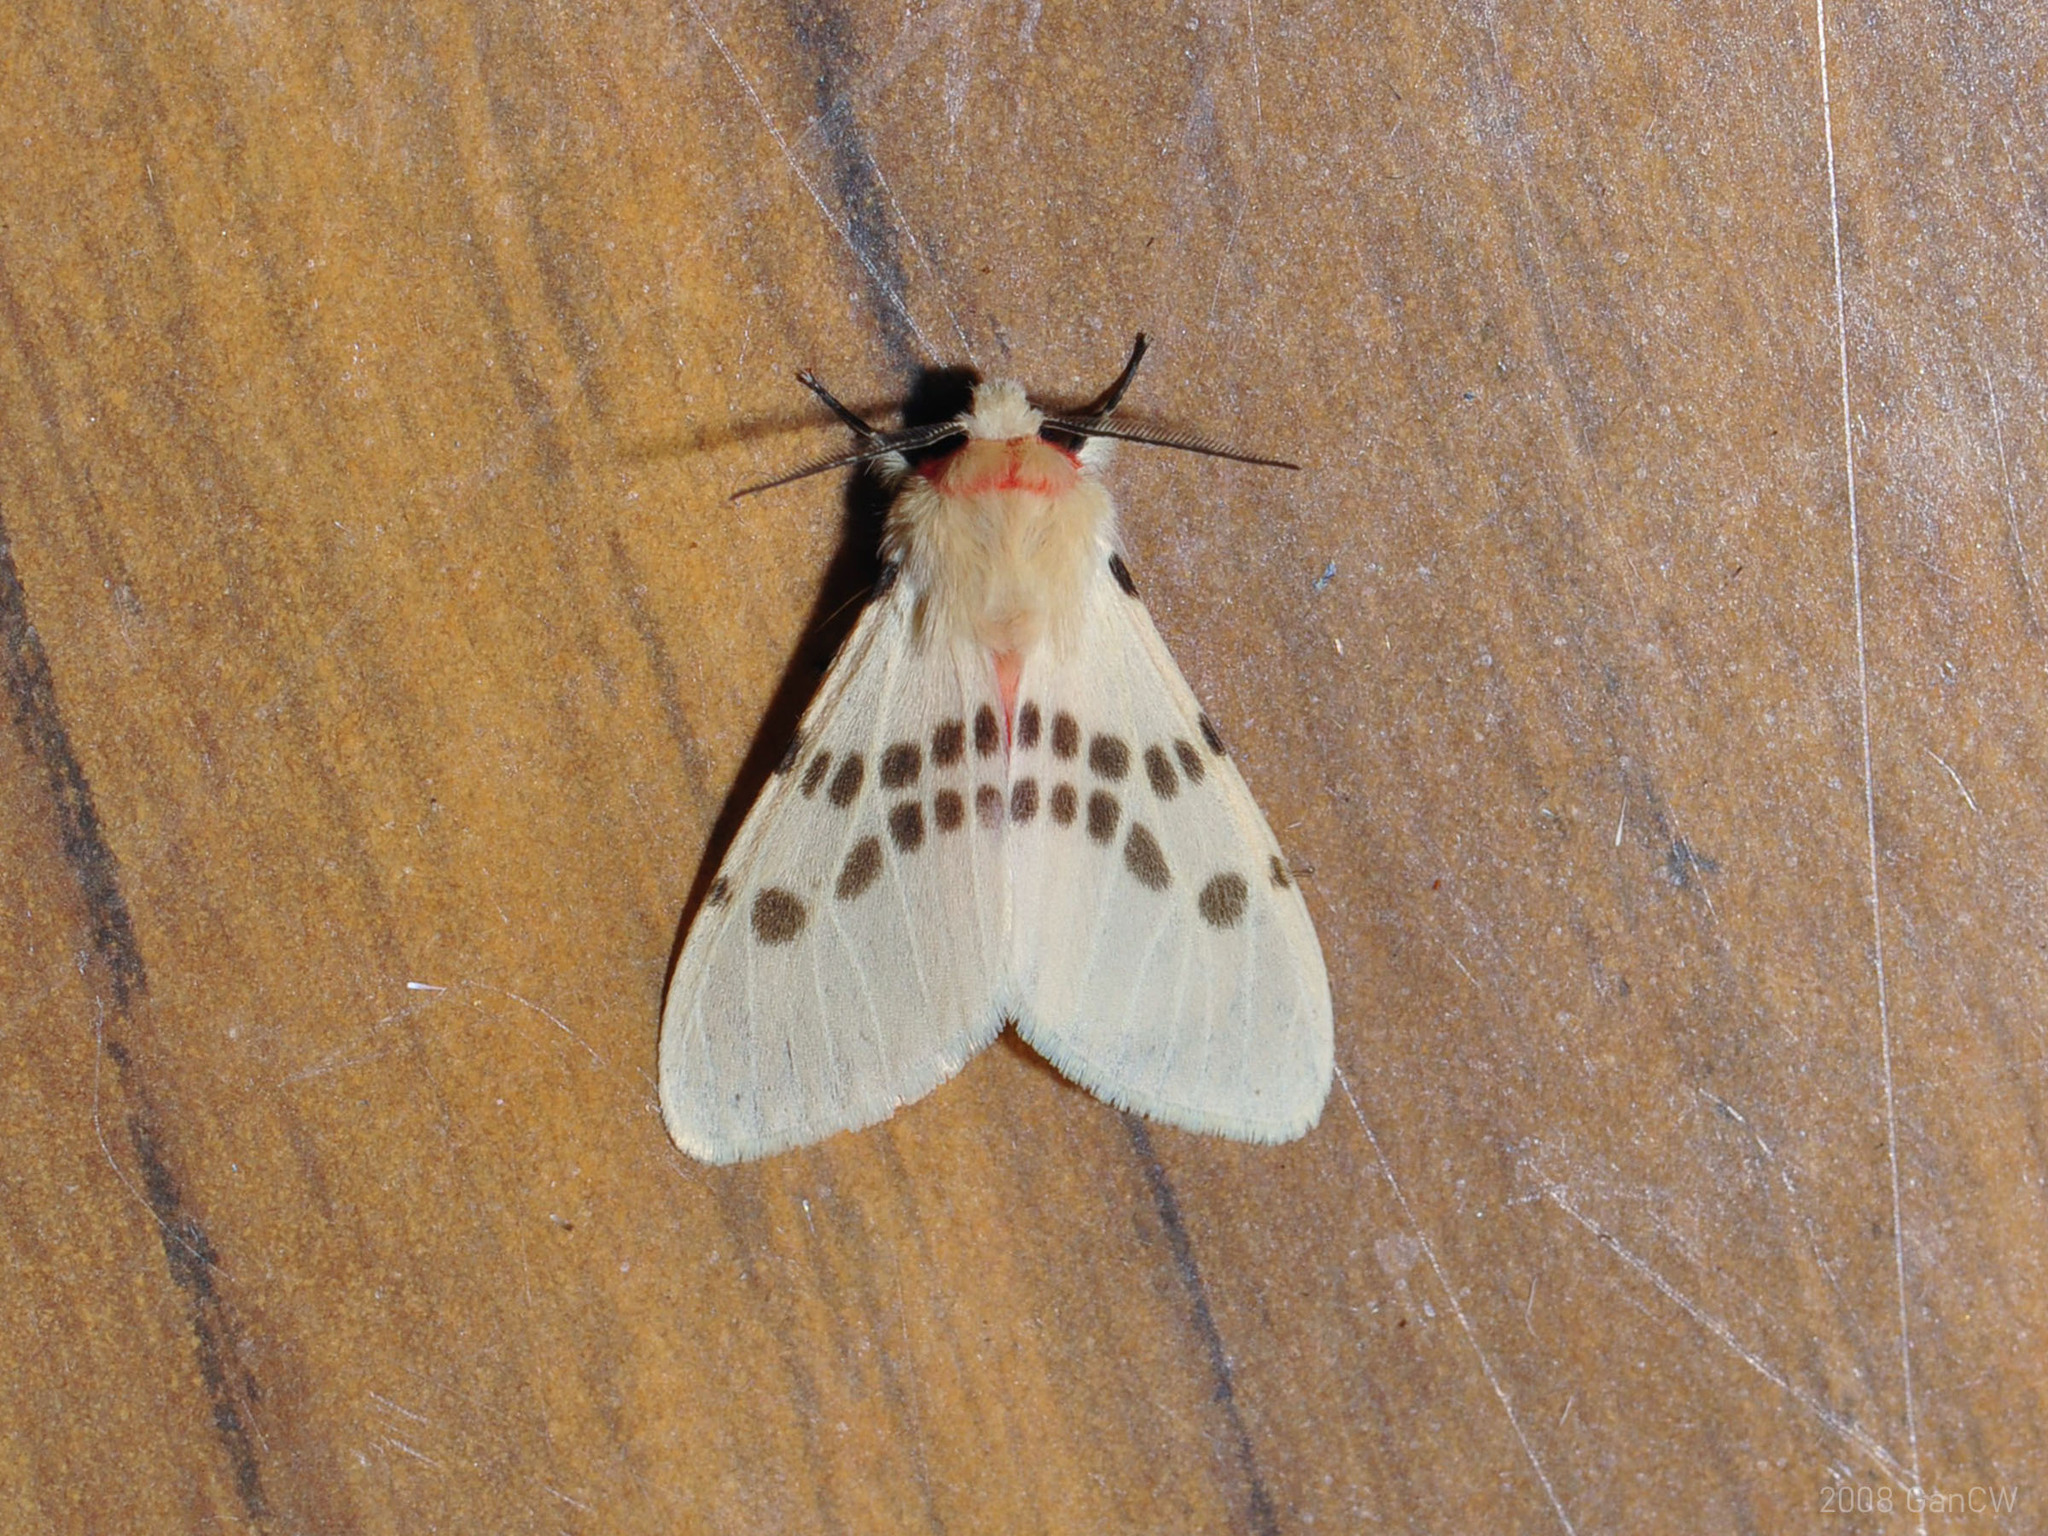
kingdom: Animalia
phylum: Arthropoda
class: Insecta
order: Lepidoptera
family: Erebidae
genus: Lemyra
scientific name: Lemyra ypsilon
